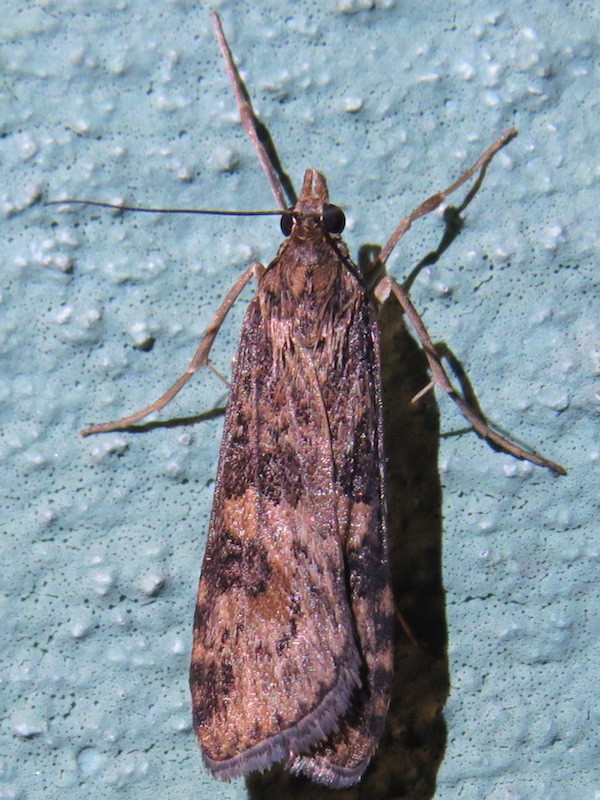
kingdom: Animalia
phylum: Arthropoda
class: Insecta
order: Lepidoptera
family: Crambidae
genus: Nomophila
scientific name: Nomophila nearctica
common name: American rush veneer
